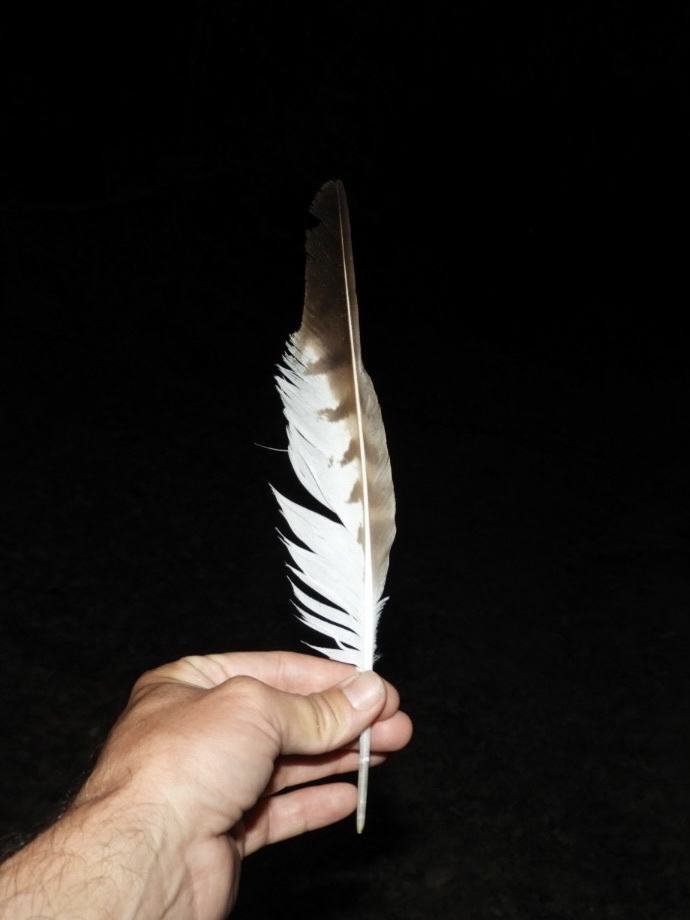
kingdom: Animalia
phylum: Chordata
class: Aves
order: Accipitriformes
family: Accipitridae
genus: Buteo
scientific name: Buteo buteo
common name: Common buzzard
